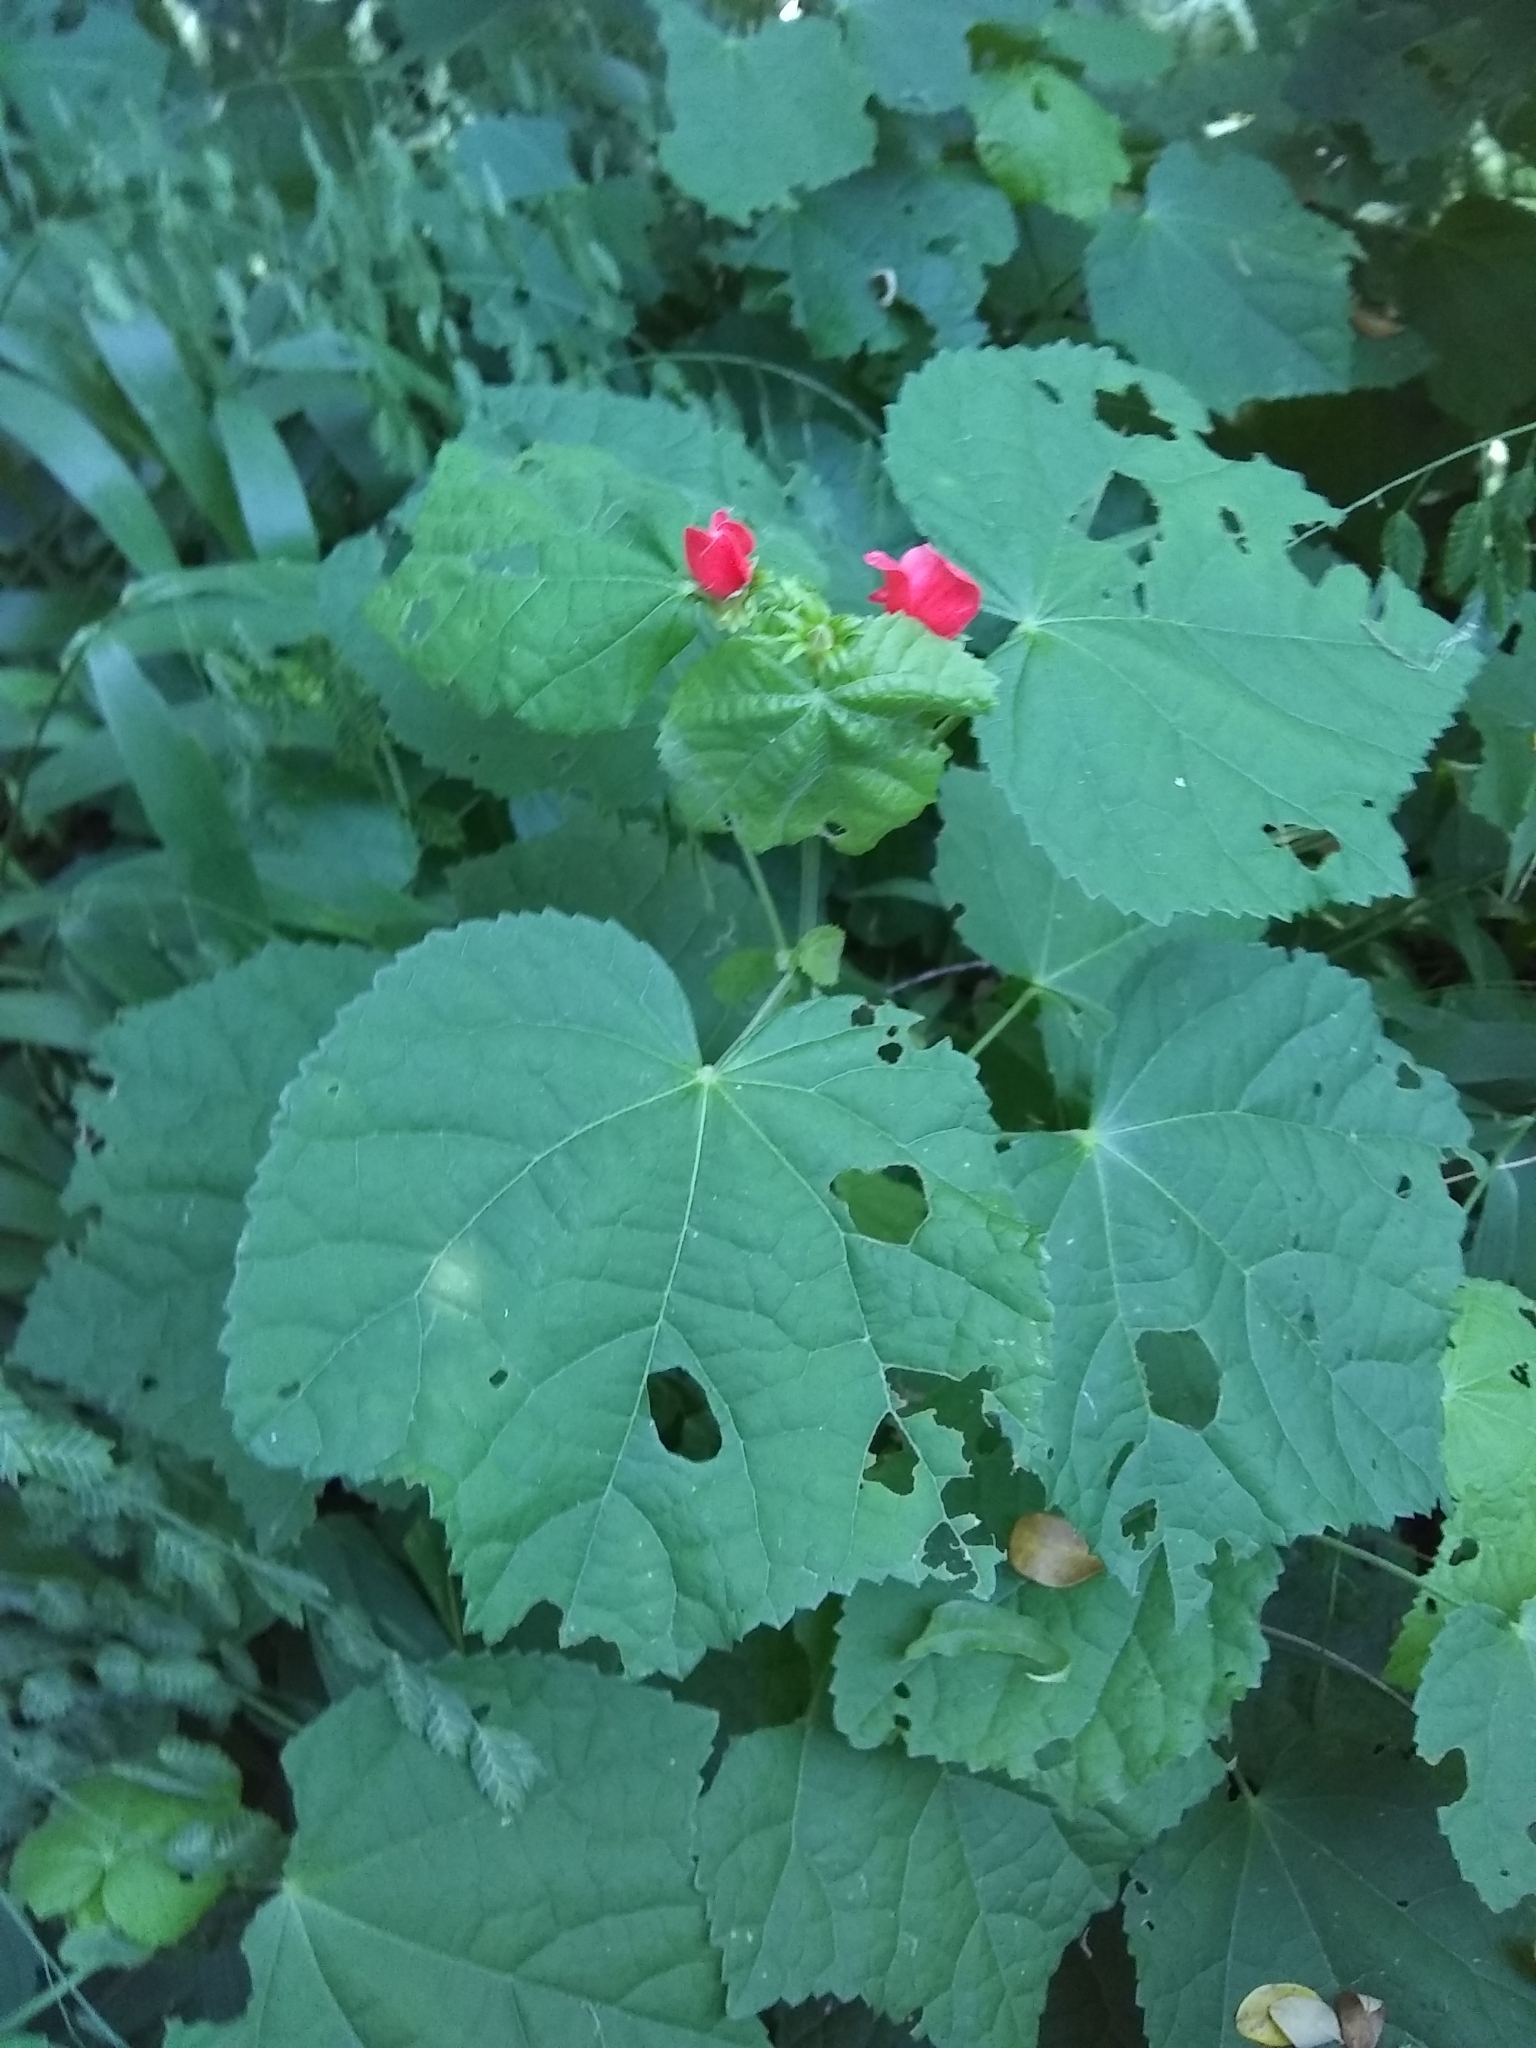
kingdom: Plantae
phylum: Tracheophyta
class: Magnoliopsida
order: Malvales
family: Malvaceae
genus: Malvaviscus
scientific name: Malvaviscus arboreus
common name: Wax mallow
